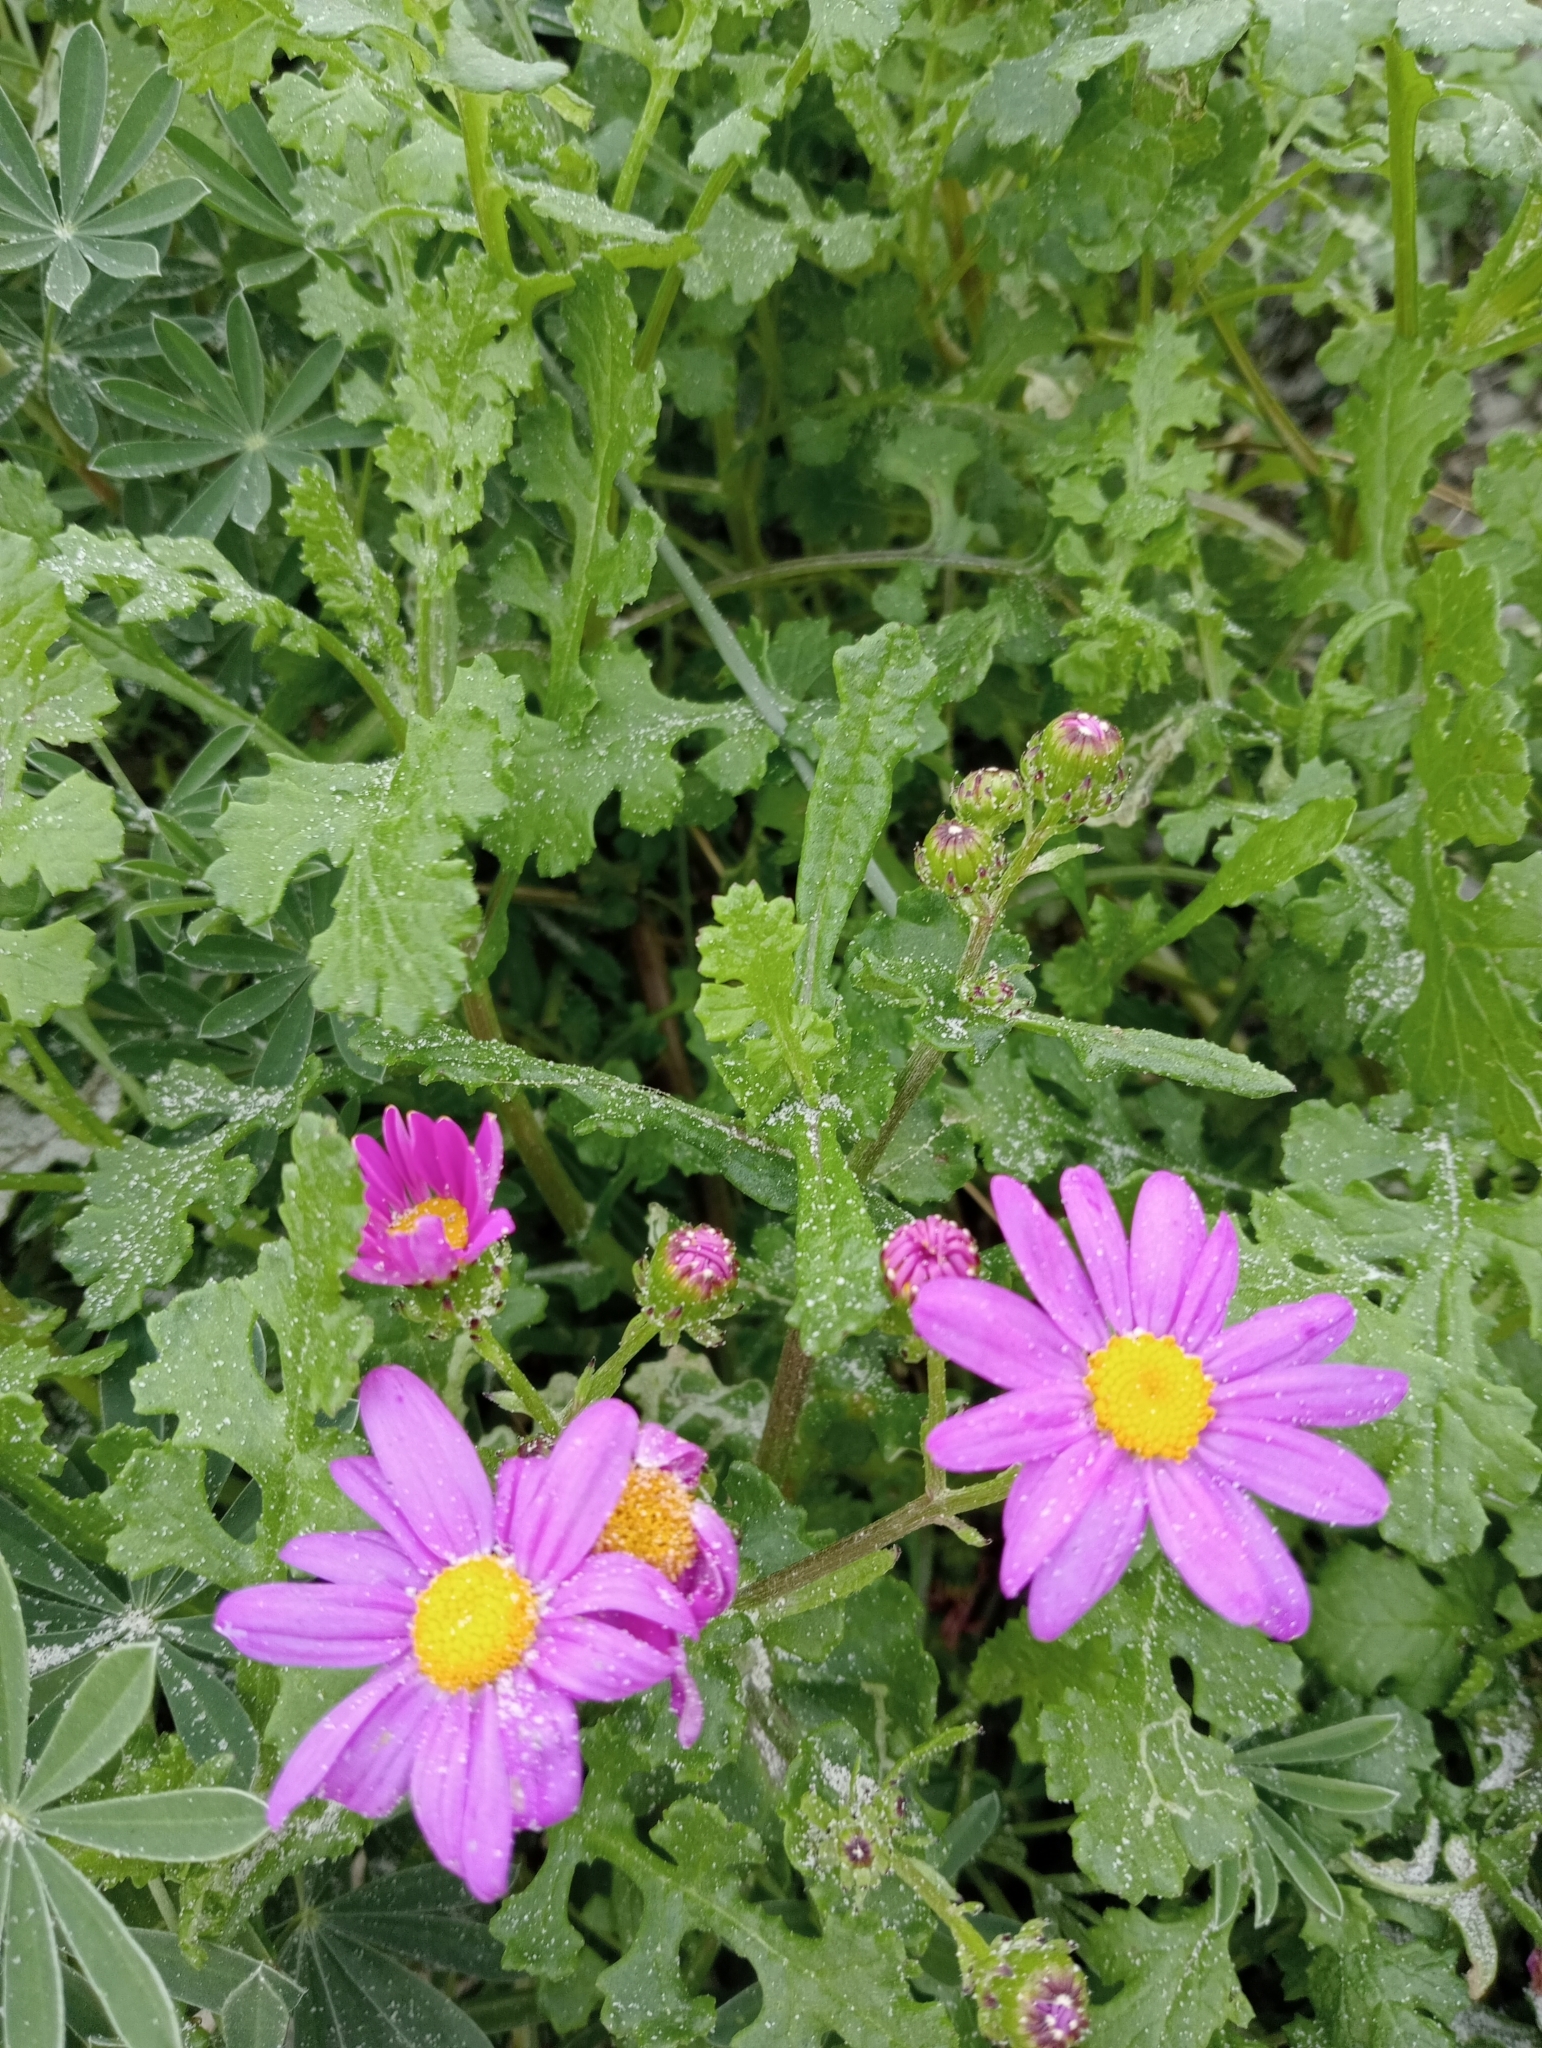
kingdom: Plantae
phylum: Tracheophyta
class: Magnoliopsida
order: Asterales
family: Asteraceae
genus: Senecio
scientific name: Senecio elegans
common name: Purple groundsel
